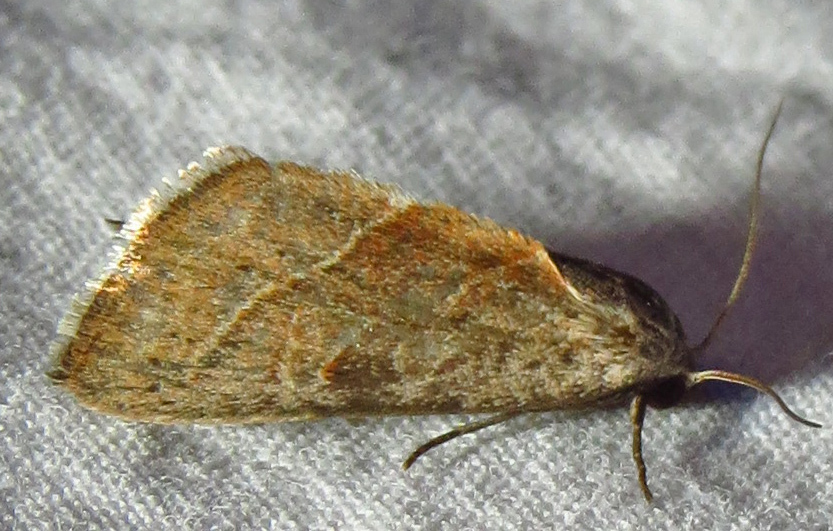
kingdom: Animalia
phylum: Arthropoda
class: Insecta
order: Lepidoptera
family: Noctuidae
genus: Galgula
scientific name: Galgula partita
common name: Wedgeling
